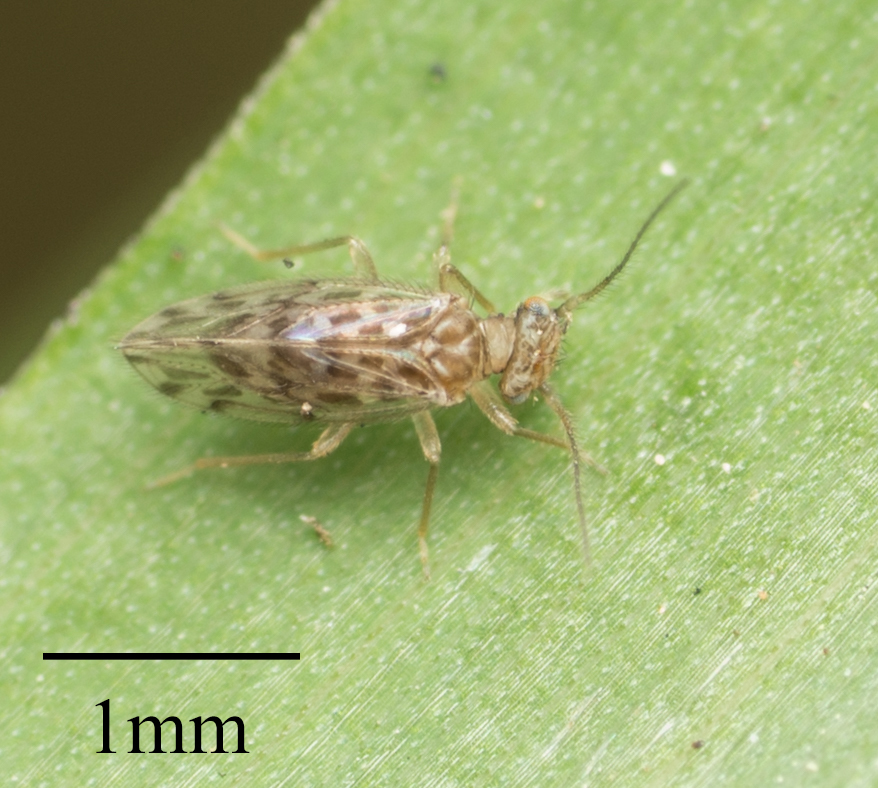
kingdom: Animalia
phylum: Arthropoda
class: Insecta
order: Psocodea
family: Ectopsocidae
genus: Ectopsocus
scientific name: Ectopsocus strauchi
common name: Medium-sized bark louse
